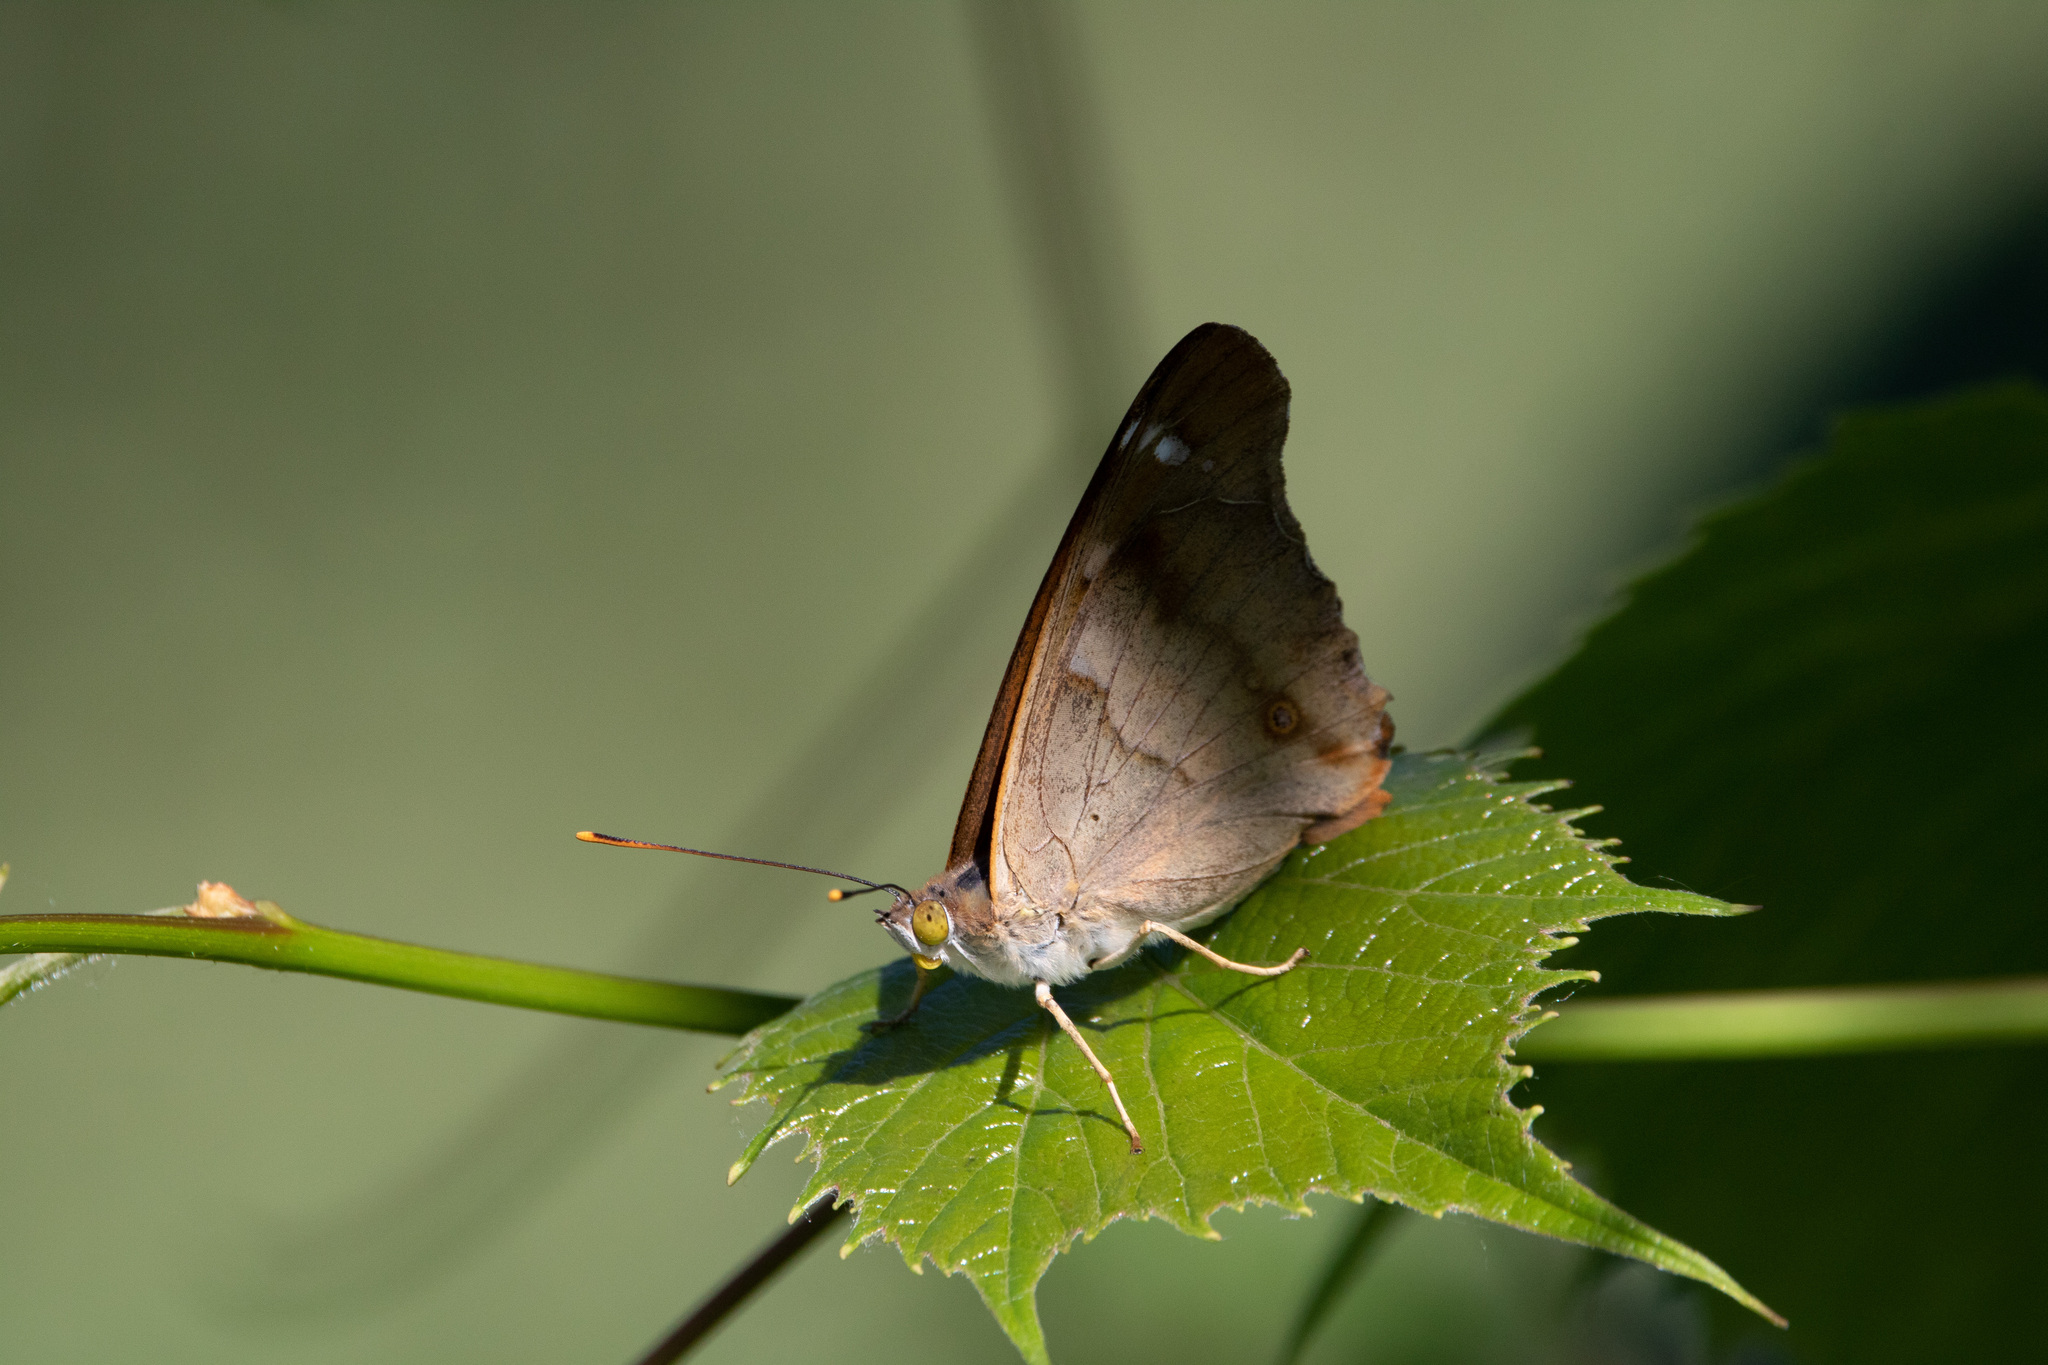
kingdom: Animalia
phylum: Arthropoda
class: Insecta
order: Lepidoptera
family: Nymphalidae
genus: Apatura
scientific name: Apatura ilia
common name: Lesser purple emperor
